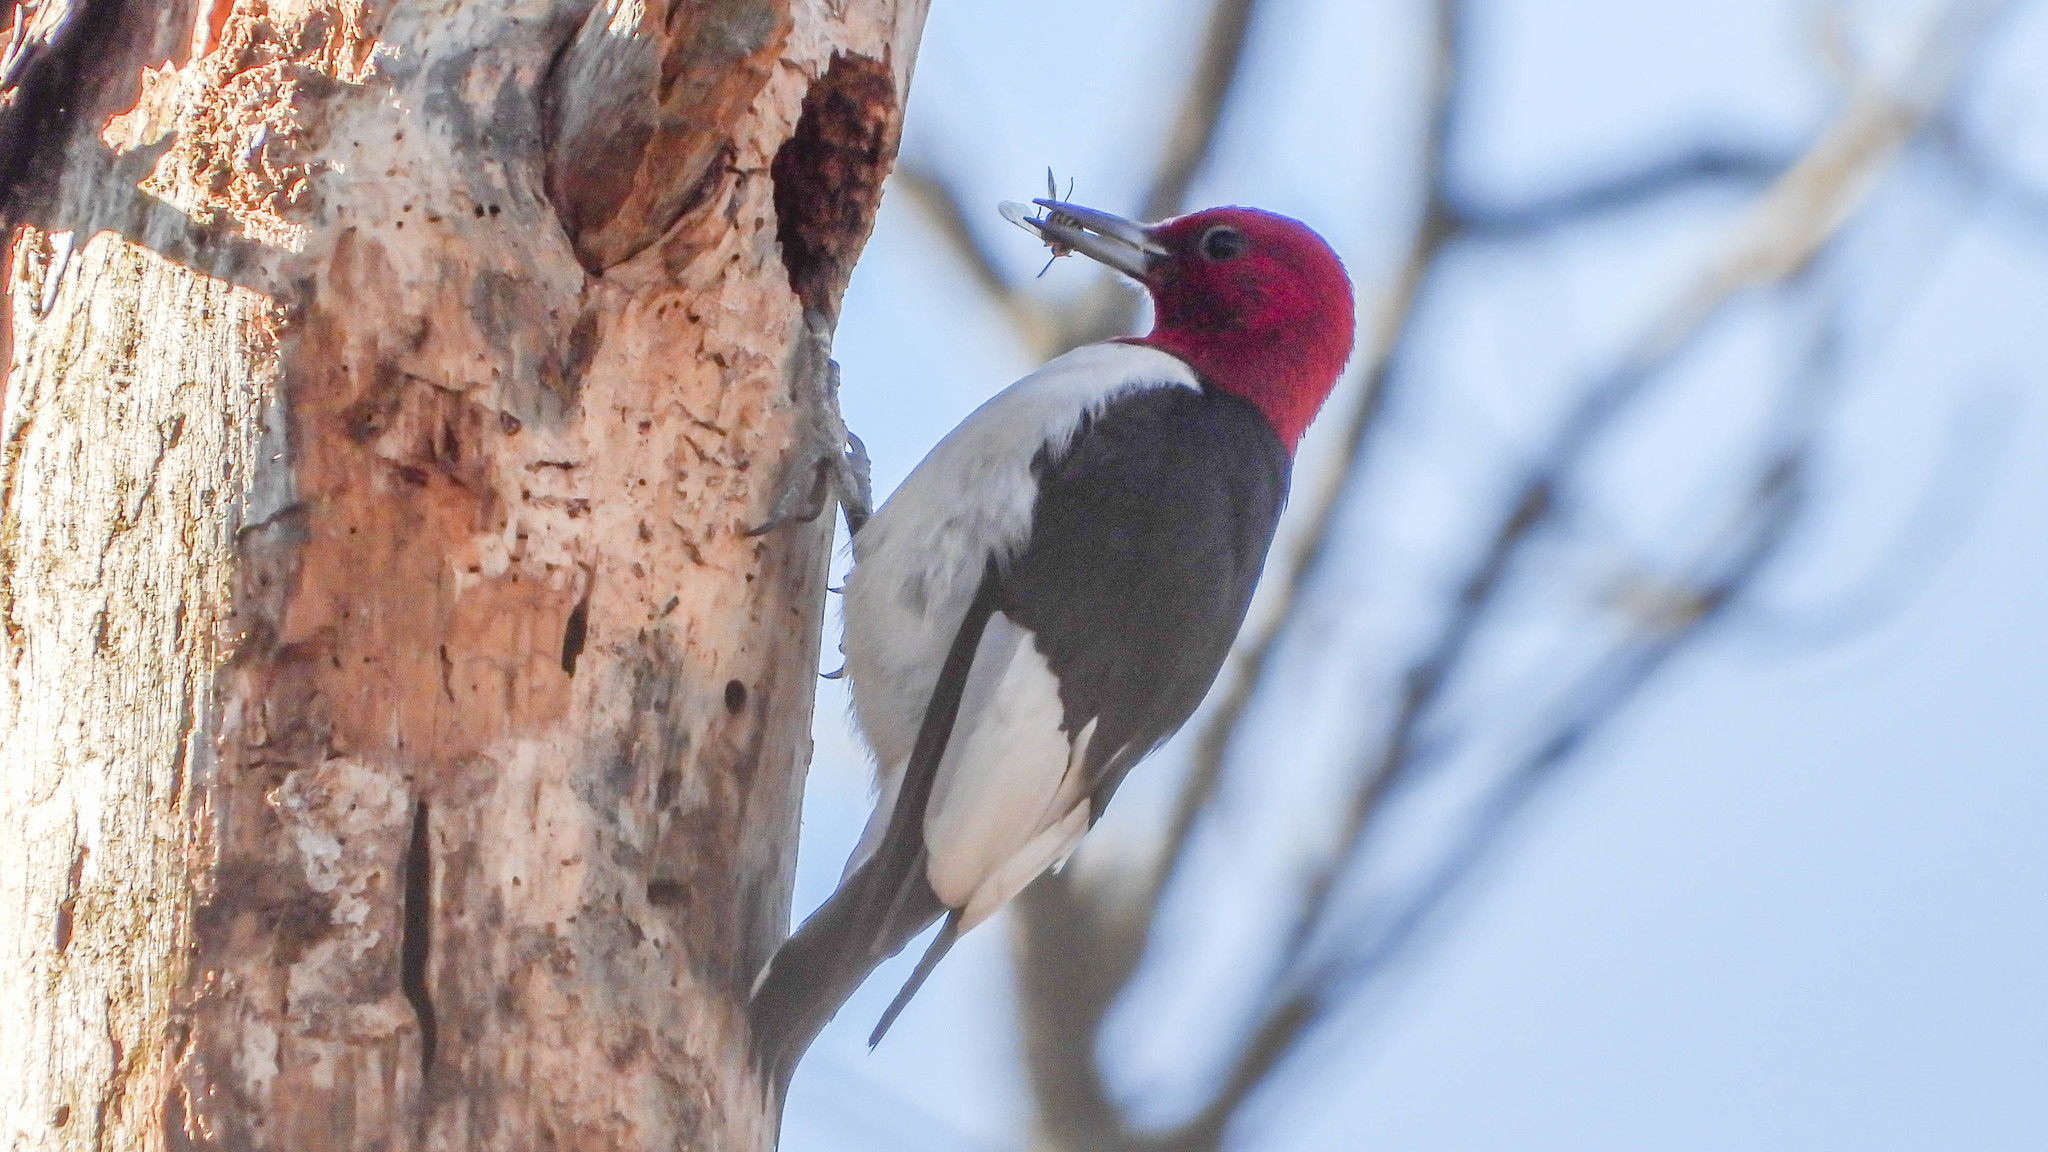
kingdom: Animalia
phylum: Chordata
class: Aves
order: Piciformes
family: Picidae
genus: Melanerpes
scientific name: Melanerpes erythrocephalus
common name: Red-headed woodpecker
